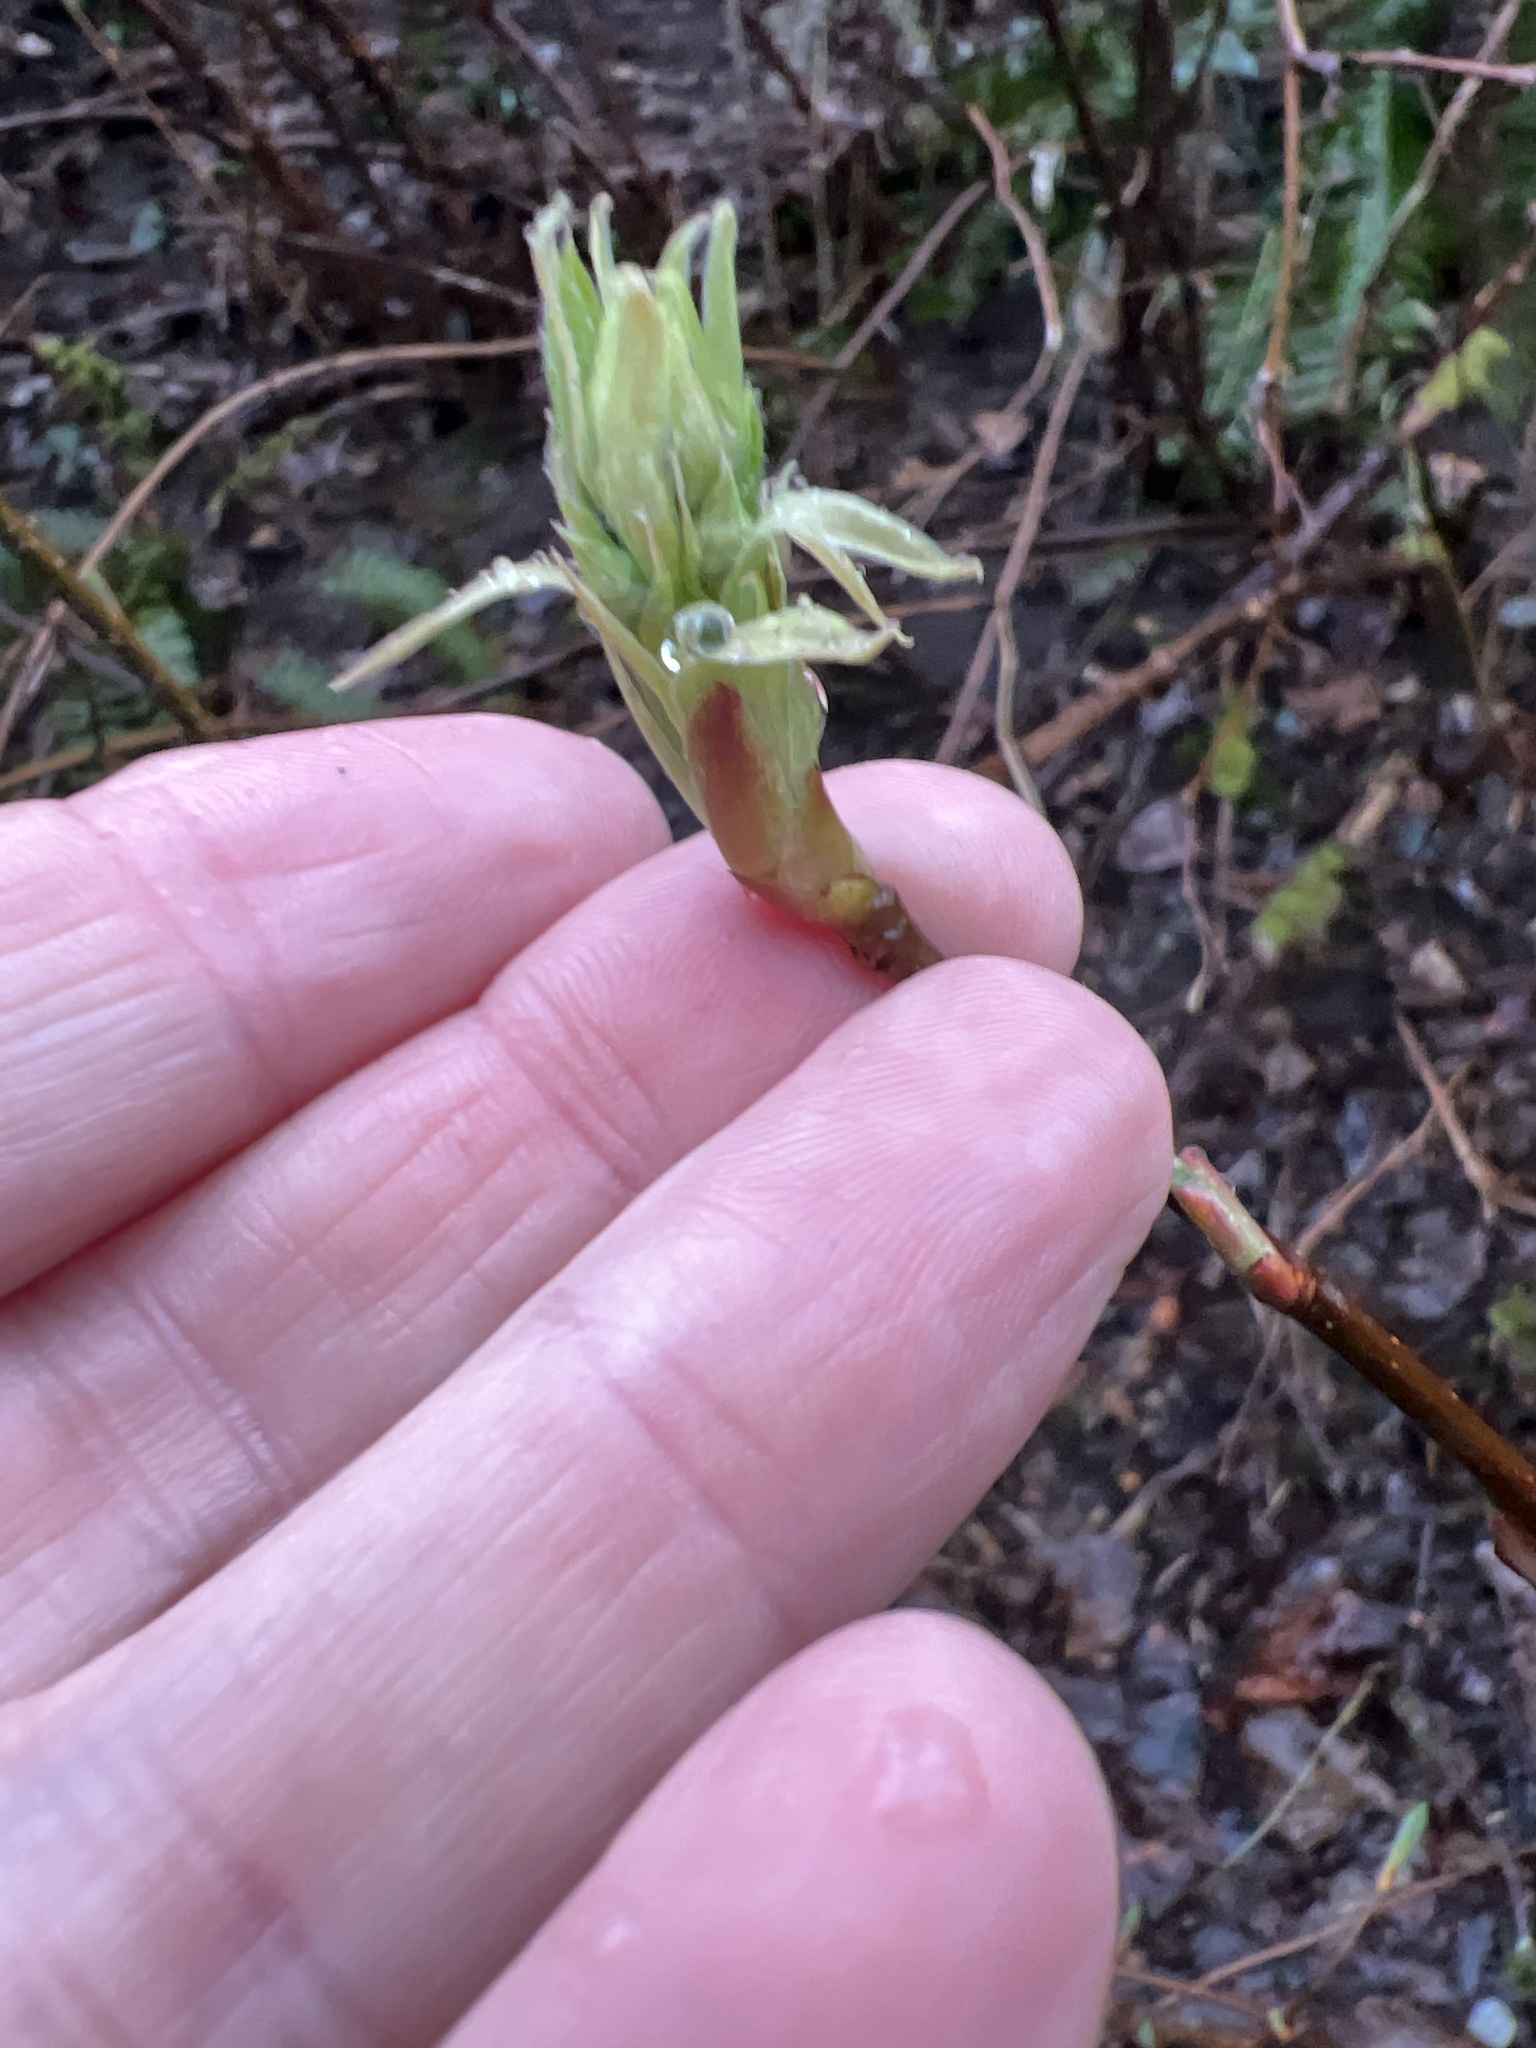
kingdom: Plantae
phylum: Tracheophyta
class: Magnoliopsida
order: Rosales
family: Rosaceae
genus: Oemleria
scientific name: Oemleria cerasiformis
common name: Osoberry
